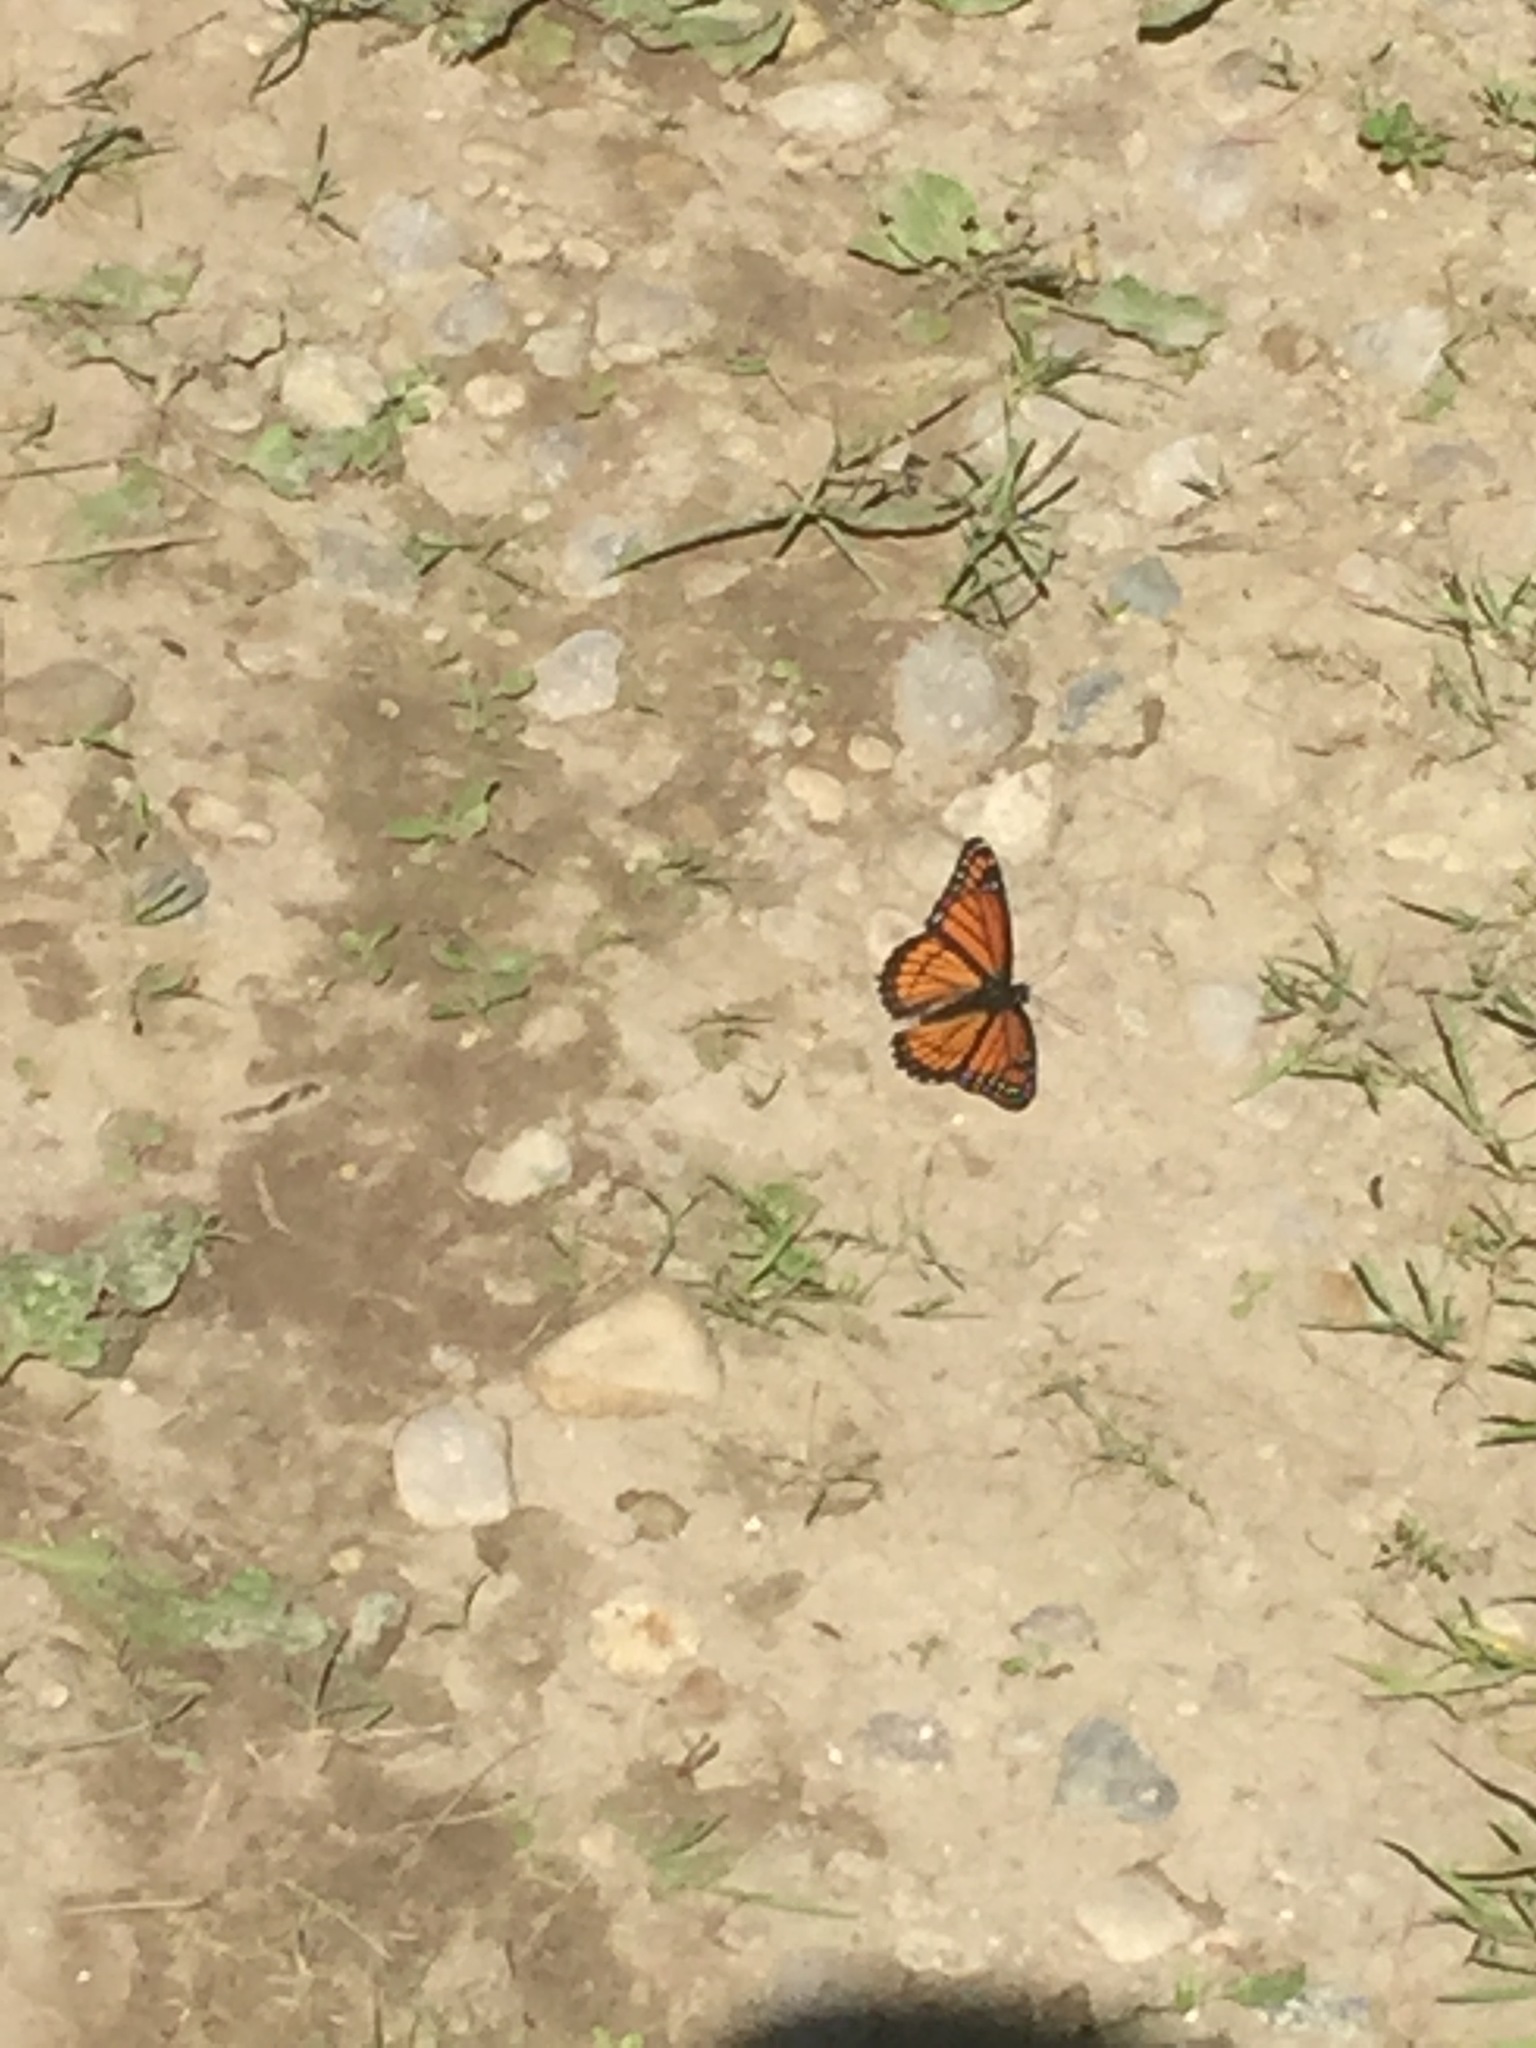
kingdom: Animalia
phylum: Arthropoda
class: Insecta
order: Lepidoptera
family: Nymphalidae
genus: Limenitis
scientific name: Limenitis archippus
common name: Viceroy
